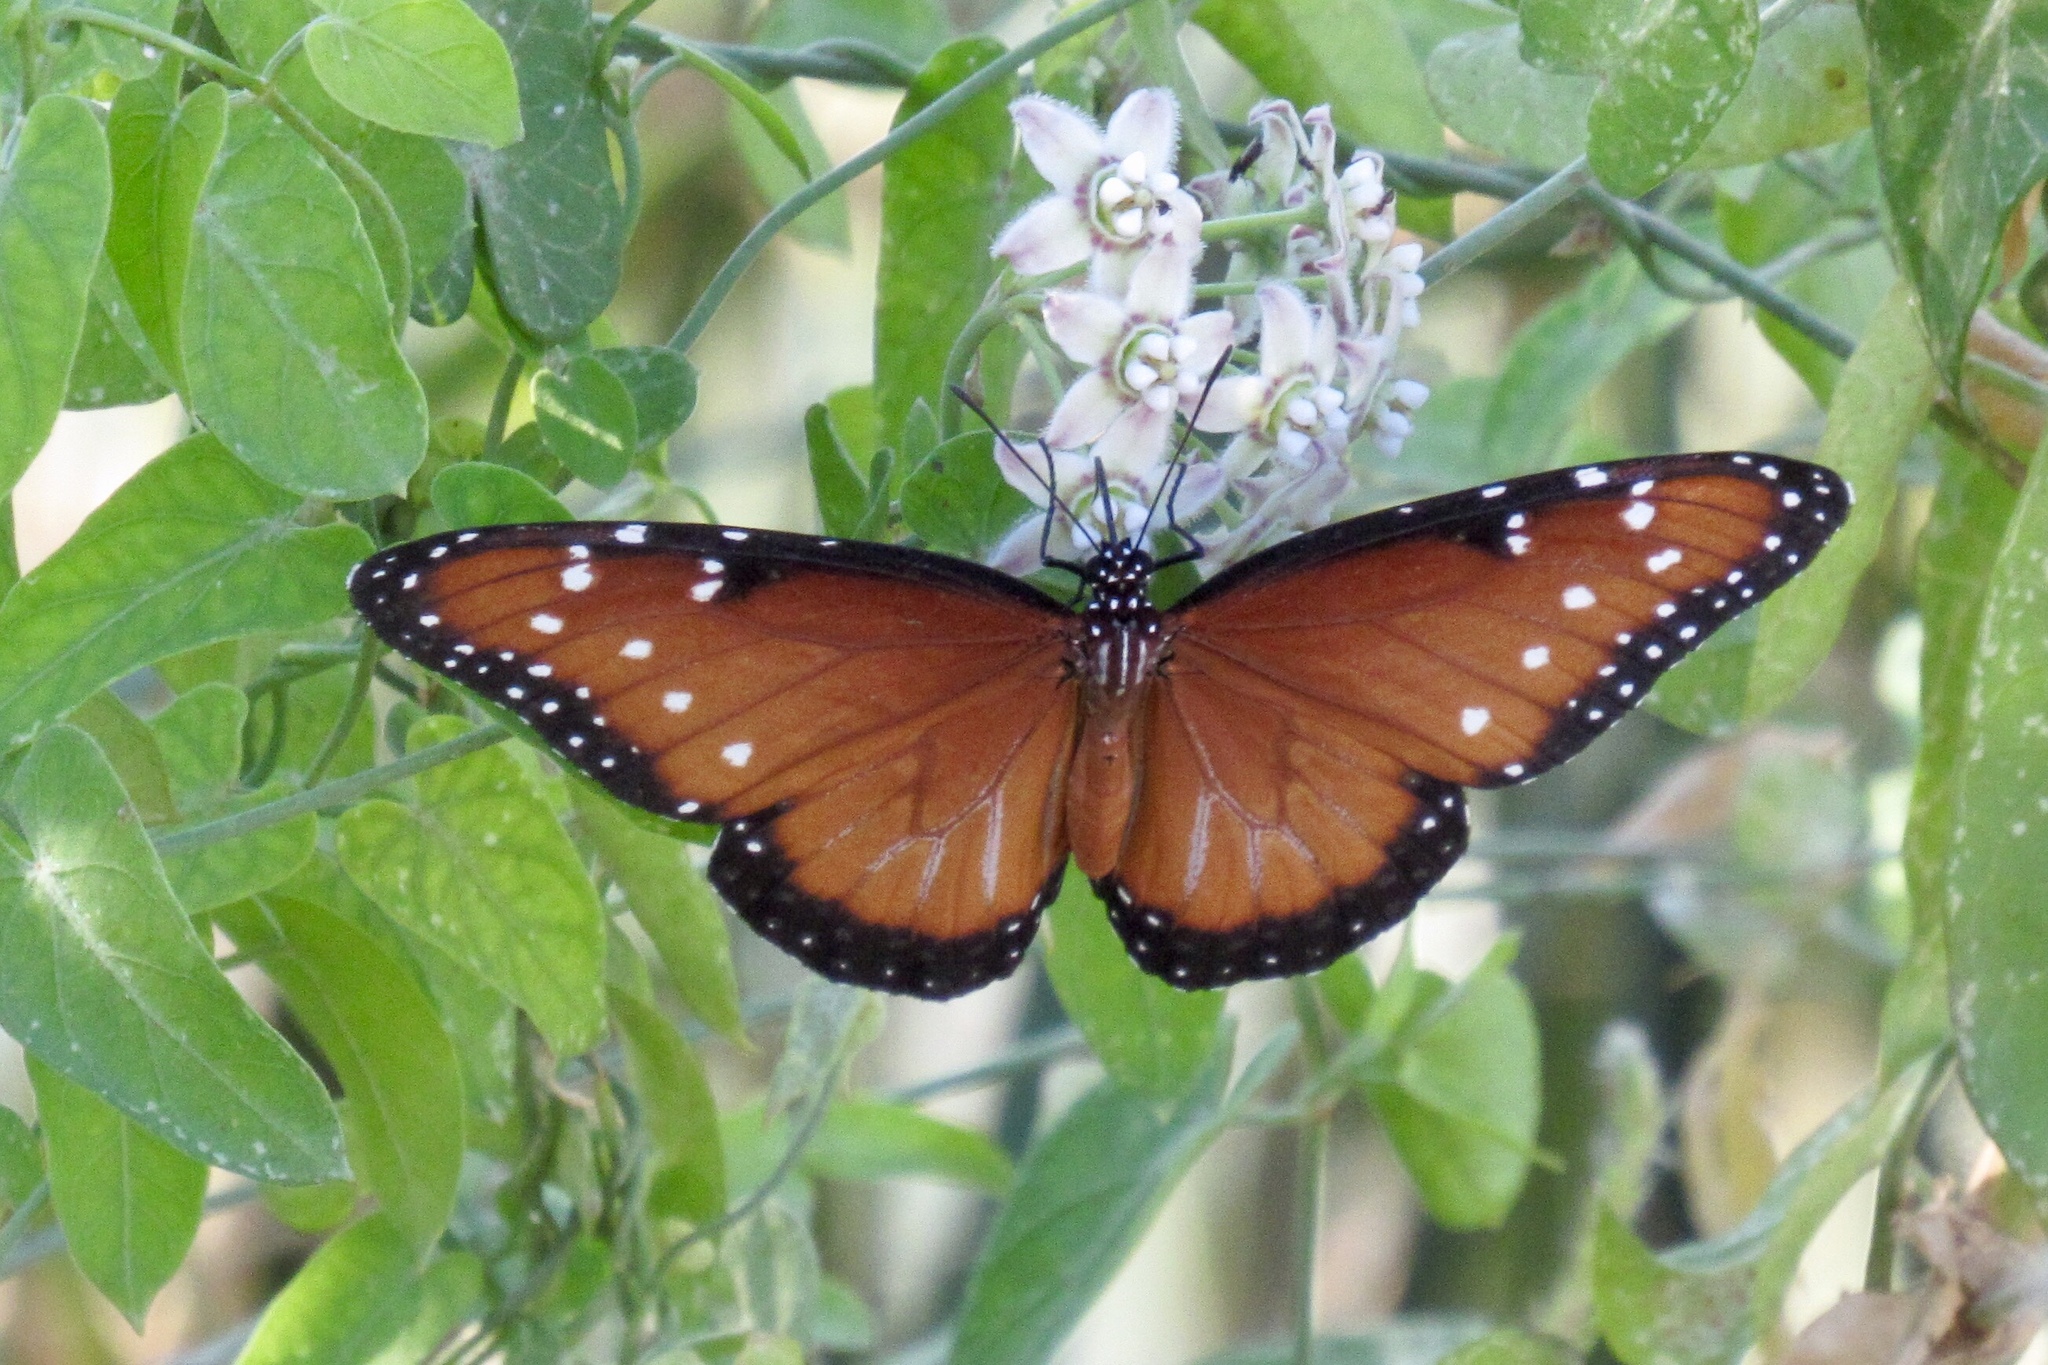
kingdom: Animalia
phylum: Arthropoda
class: Insecta
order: Lepidoptera
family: Nymphalidae
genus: Danaus
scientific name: Danaus gilippus
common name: Queen
